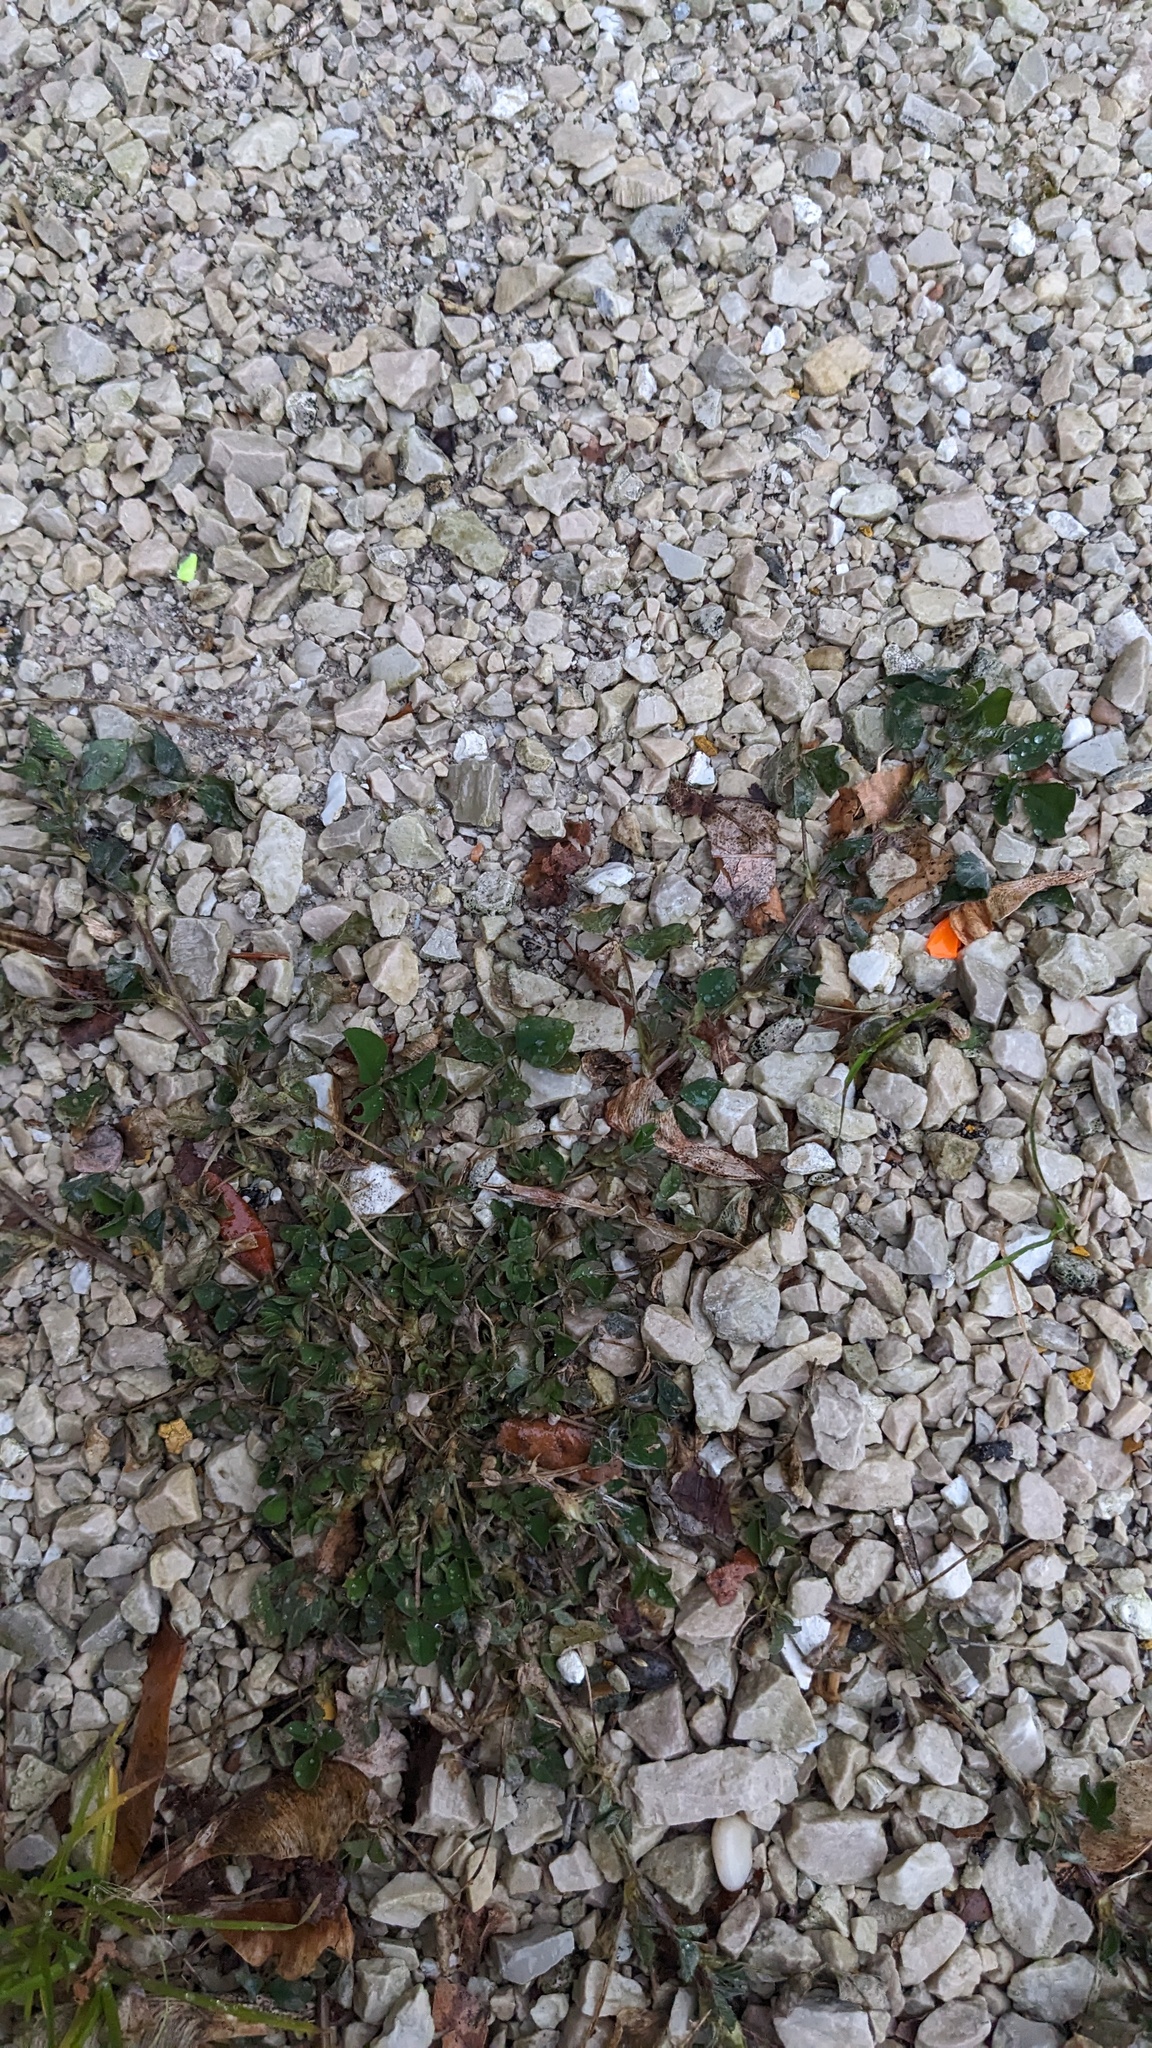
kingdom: Plantae
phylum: Tracheophyta
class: Magnoliopsida
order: Fabales
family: Fabaceae
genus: Medicago
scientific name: Medicago lupulina
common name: Black medick
